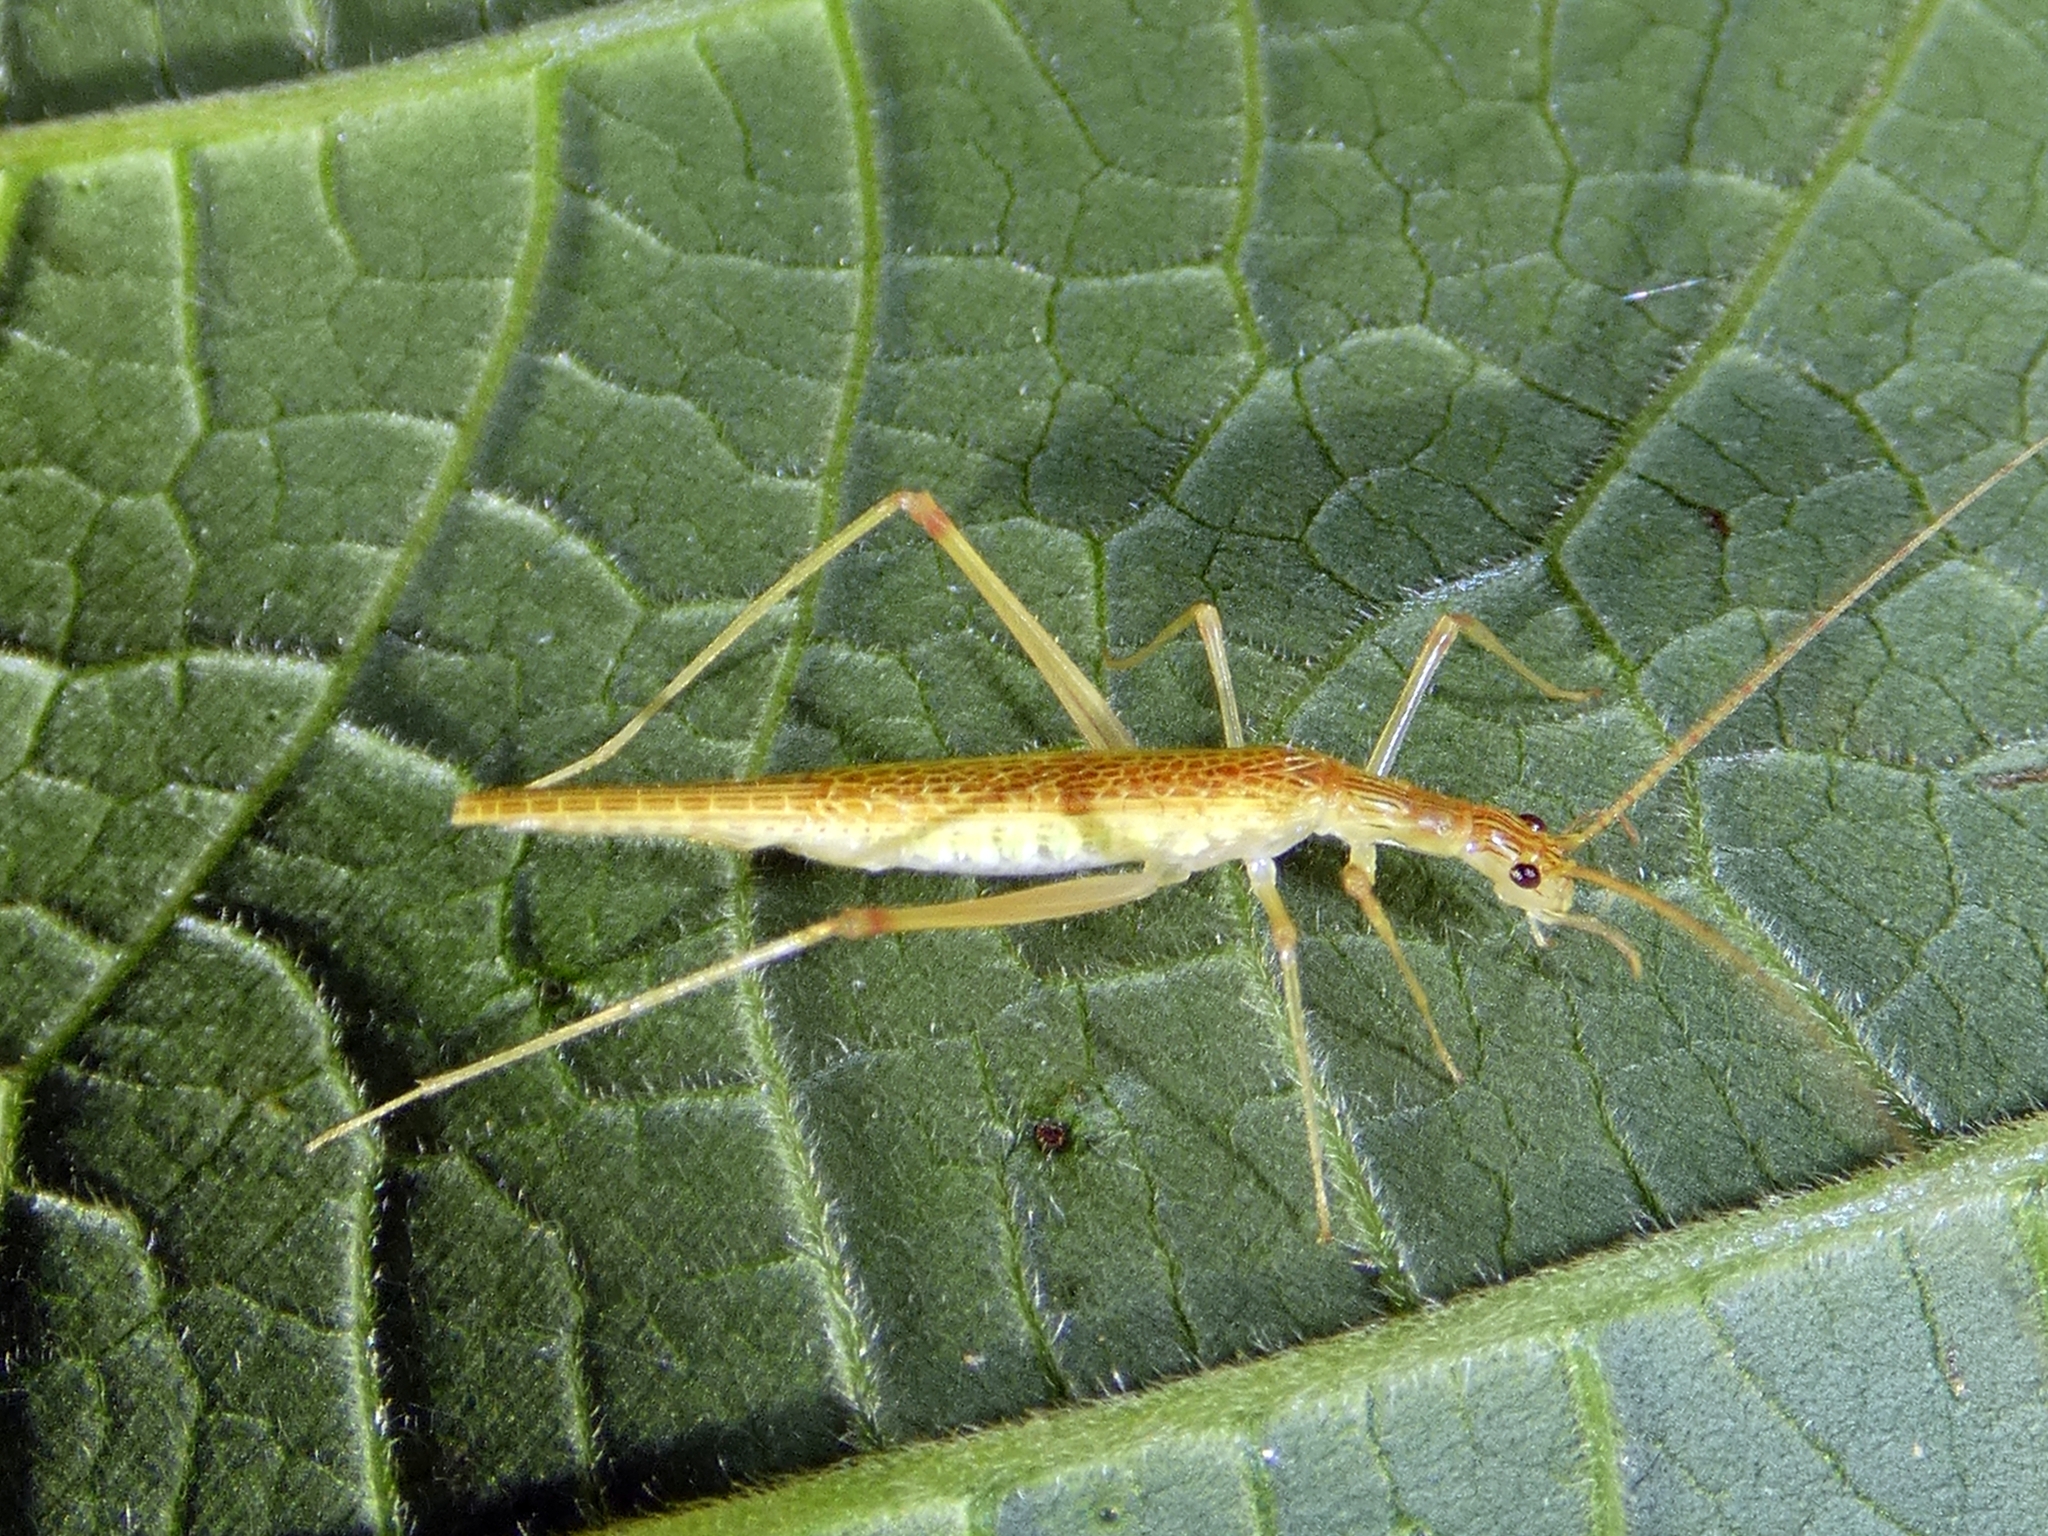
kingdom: Animalia
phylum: Arthropoda
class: Insecta
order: Orthoptera
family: Gryllidae
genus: Xabea
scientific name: Xabea leai
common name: Lea's tree cricket
